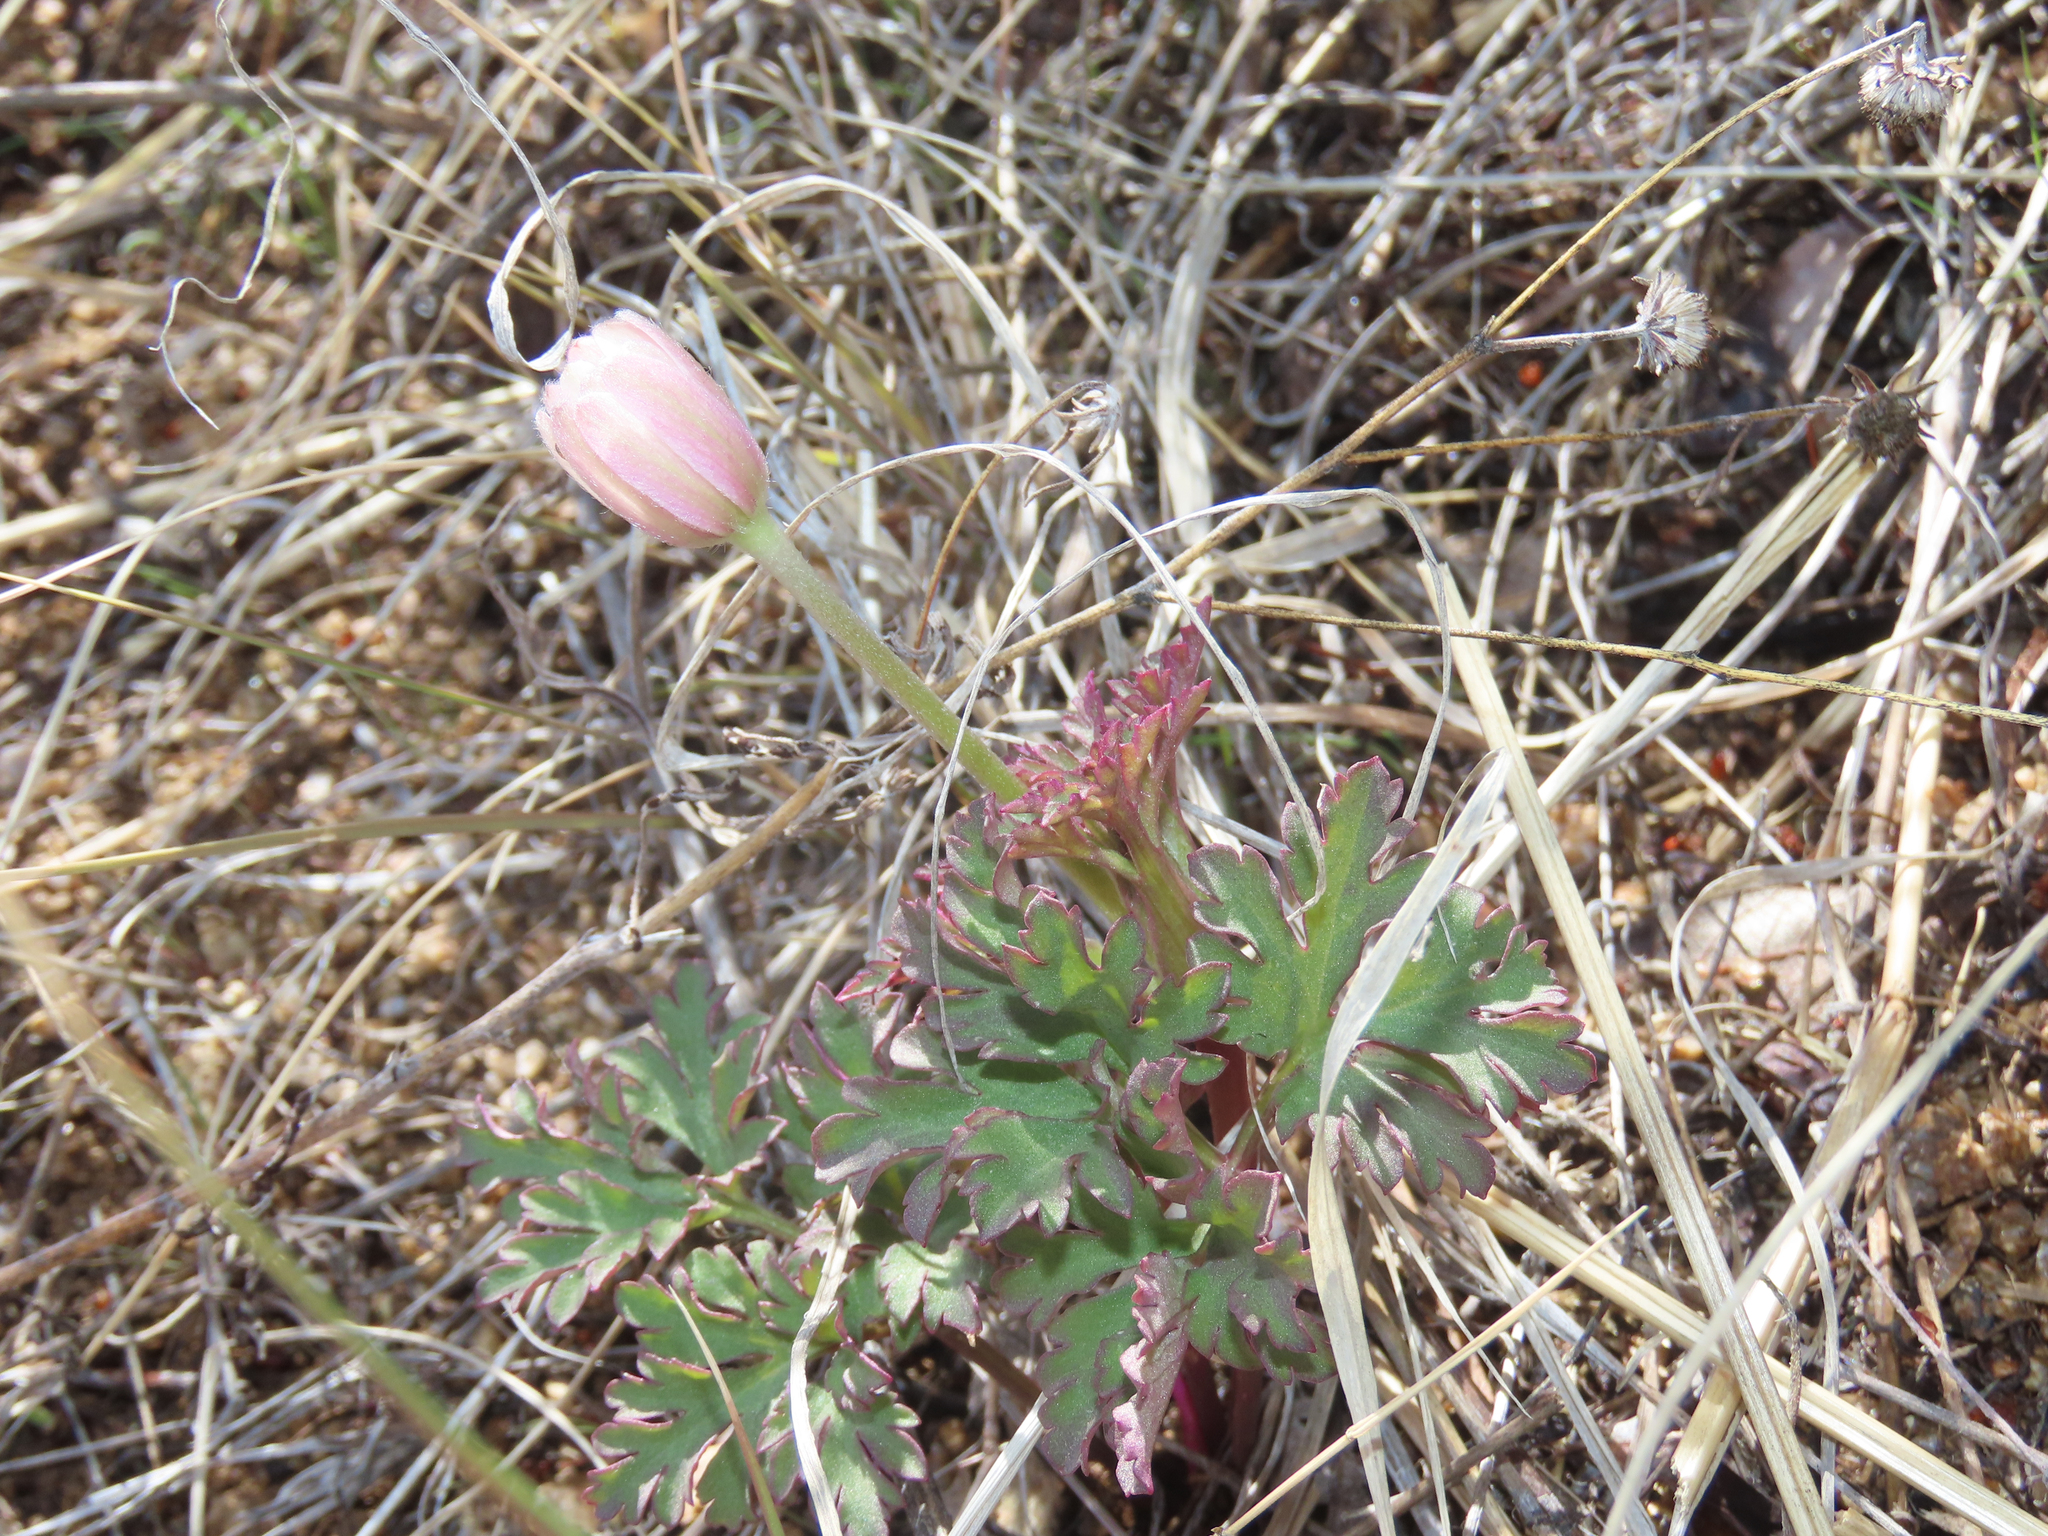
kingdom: Plantae
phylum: Tracheophyta
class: Magnoliopsida
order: Ranunculales
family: Ranunculaceae
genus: Anemone
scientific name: Anemone tuberosa
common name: Desert anemone
